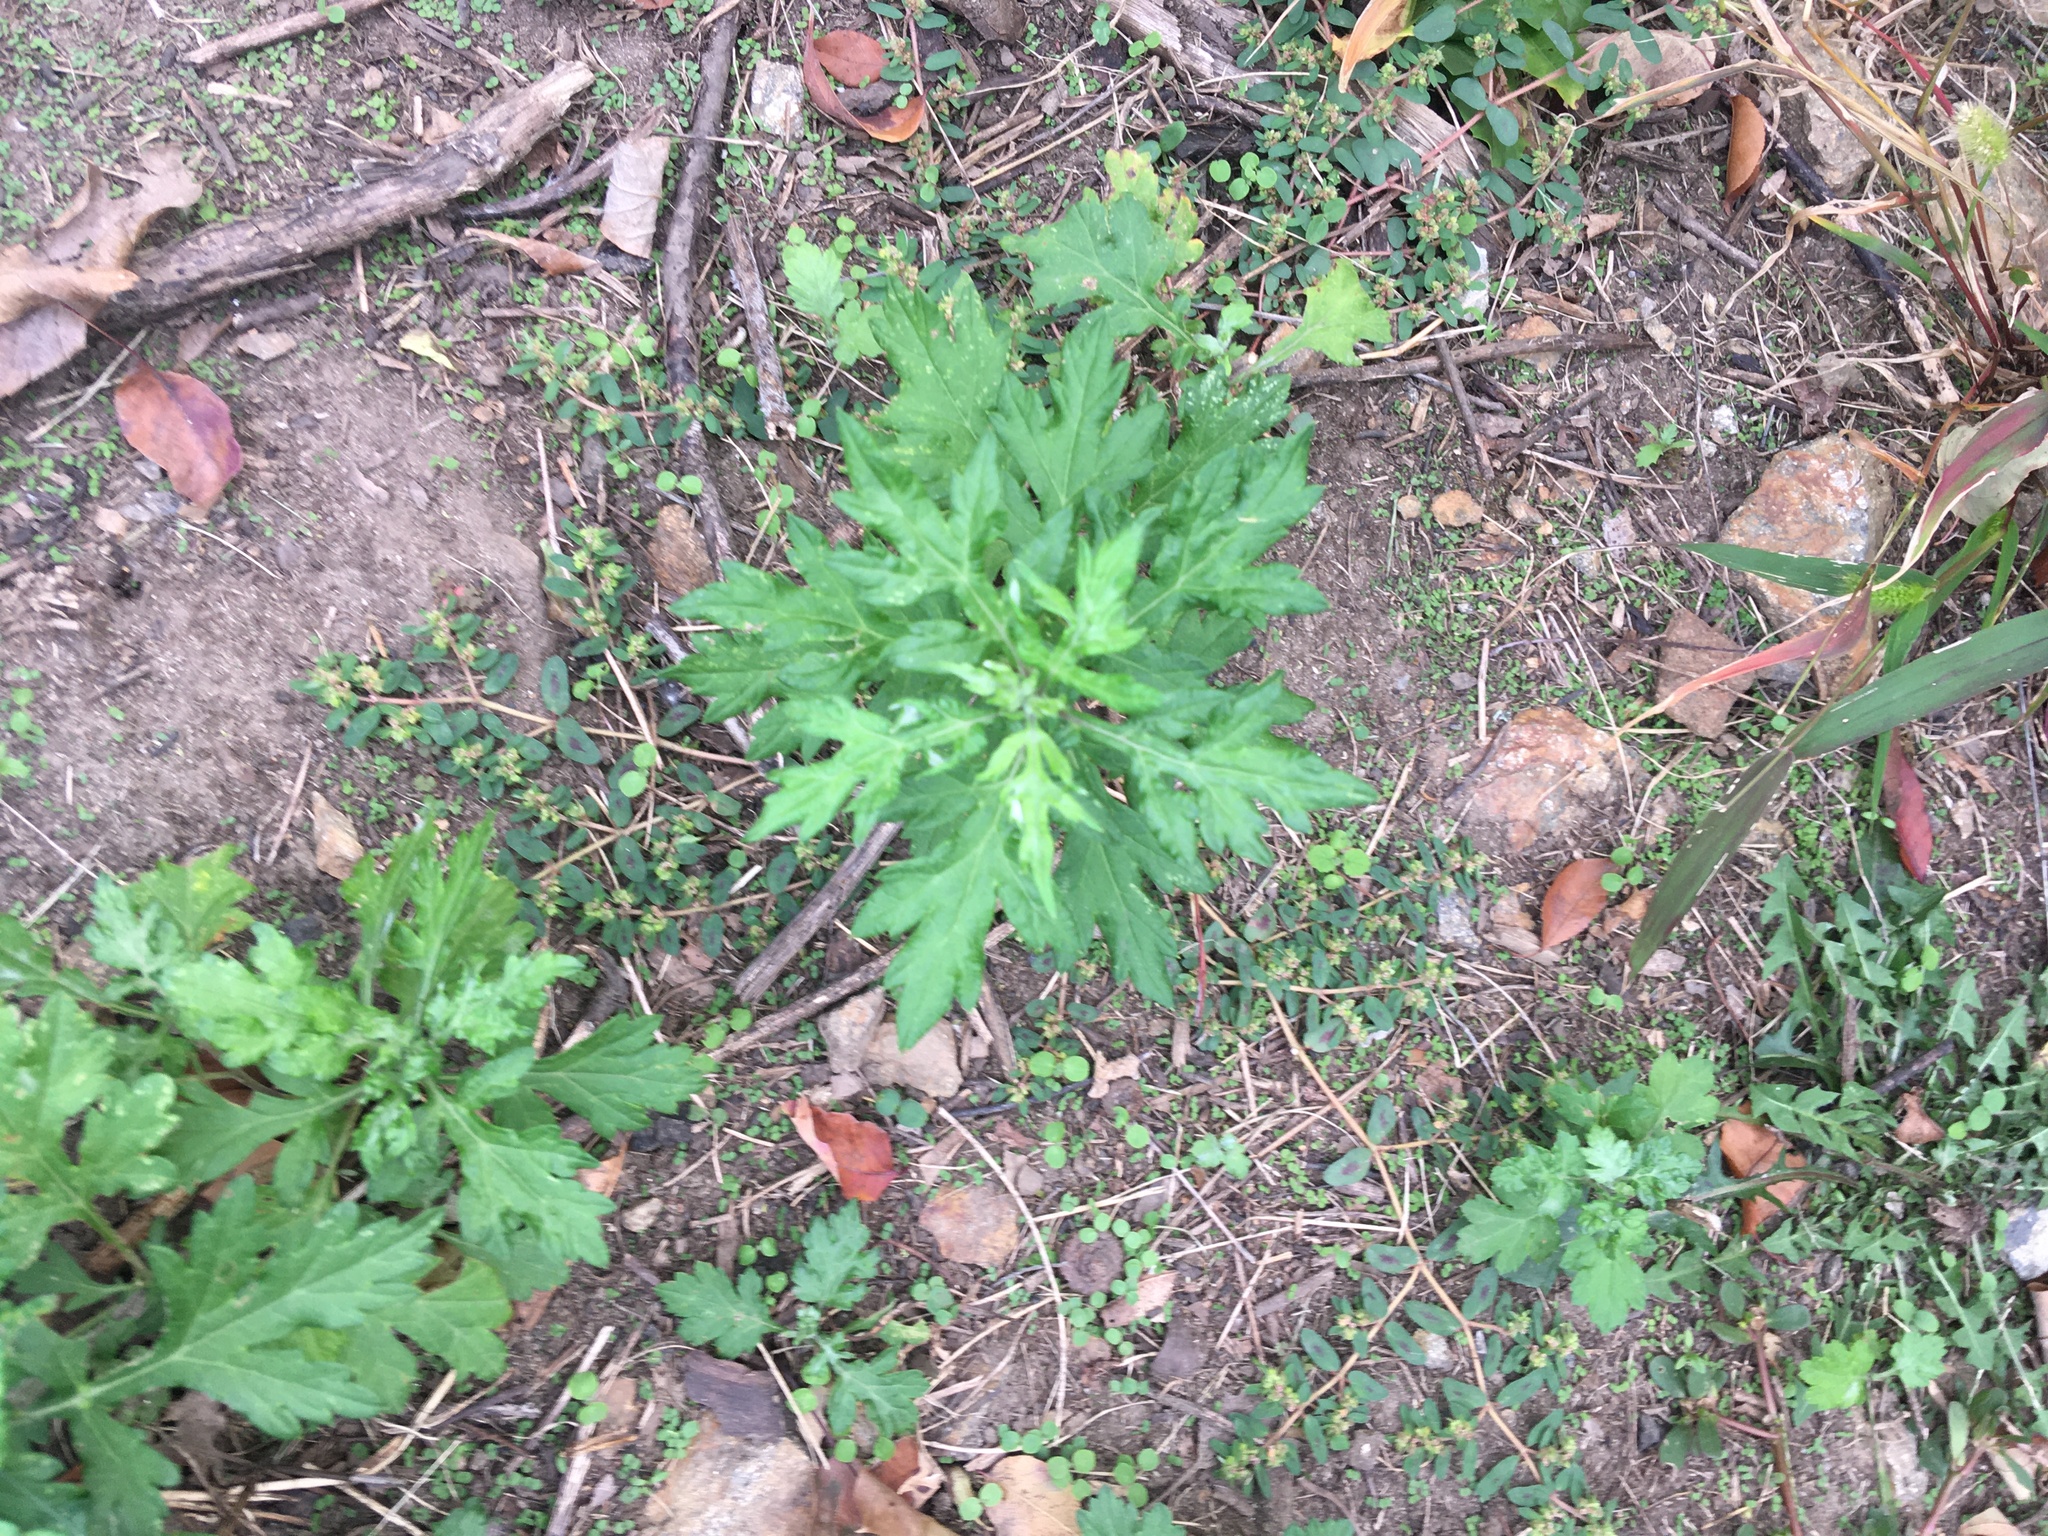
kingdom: Plantae
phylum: Tracheophyta
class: Magnoliopsida
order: Asterales
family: Asteraceae
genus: Artemisia
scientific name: Artemisia vulgaris
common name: Mugwort
